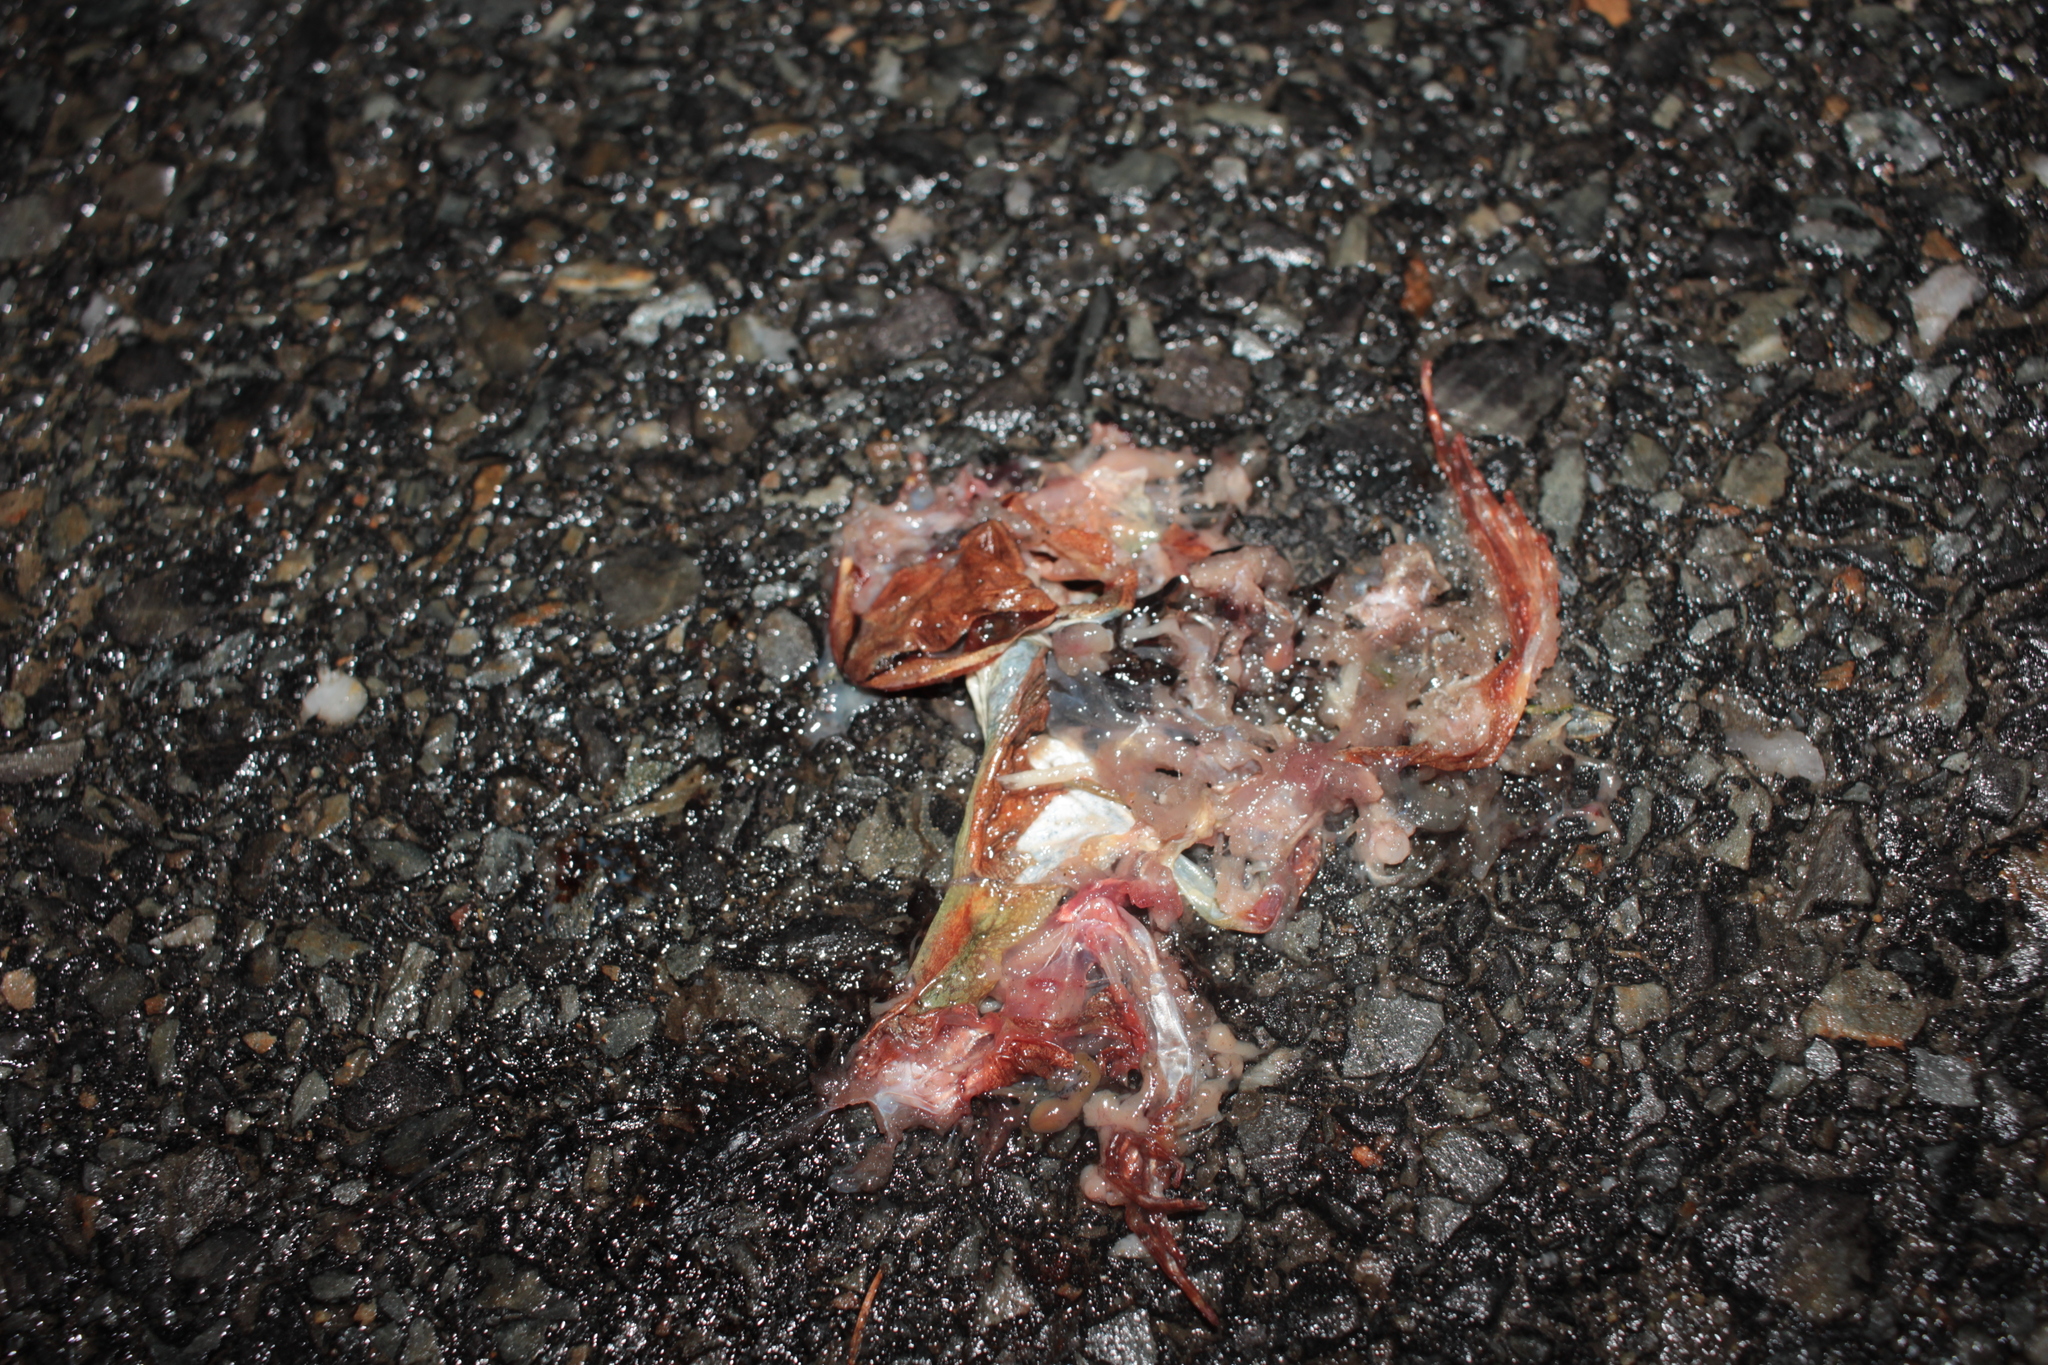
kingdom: Animalia
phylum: Chordata
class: Amphibia
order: Anura
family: Ranidae
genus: Lithobates
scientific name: Lithobates sylvaticus
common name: Wood frog
